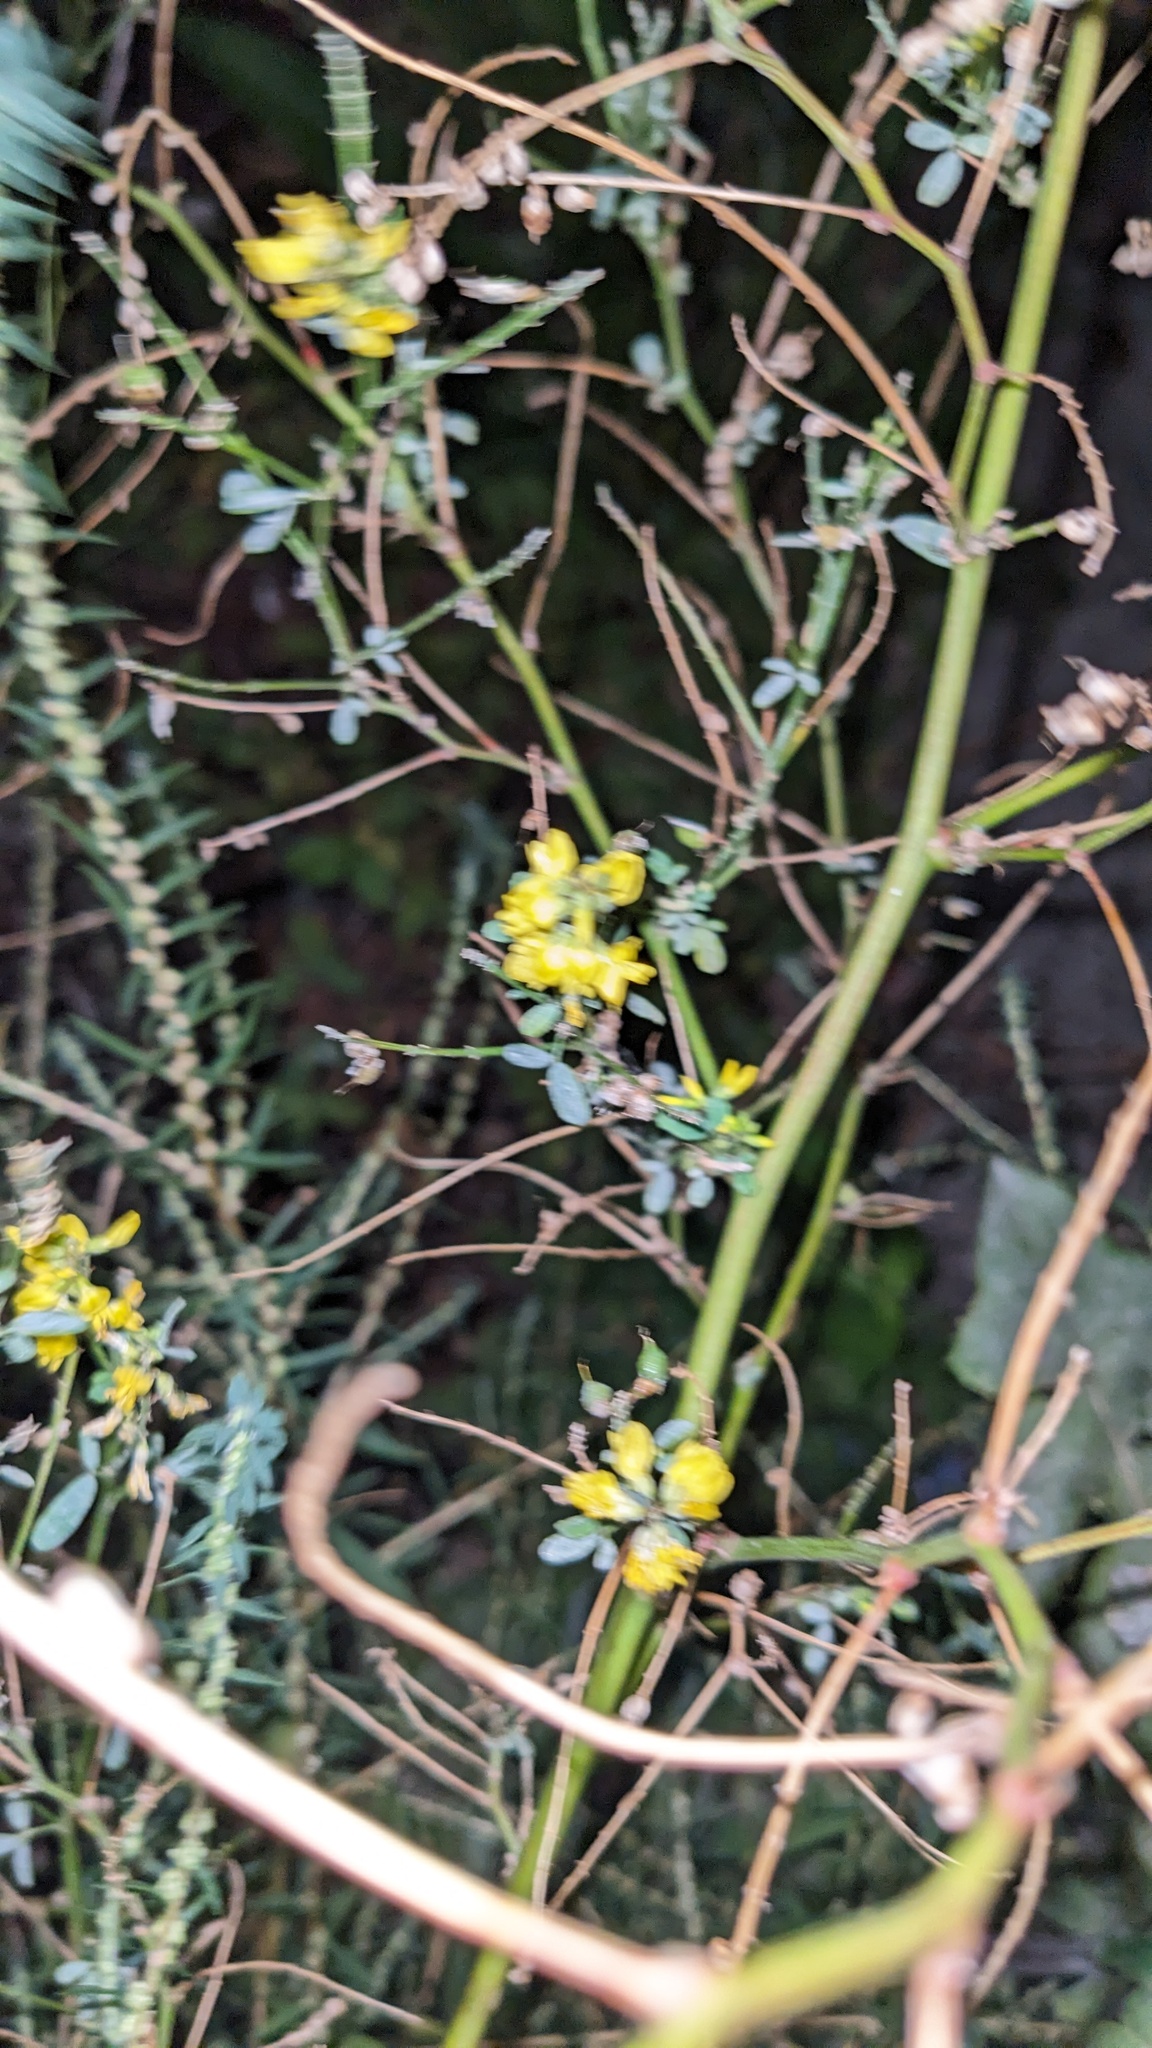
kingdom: Plantae
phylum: Tracheophyta
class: Magnoliopsida
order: Fabales
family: Fabaceae
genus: Melilotus
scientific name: Melilotus officinalis
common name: Sweetclover
